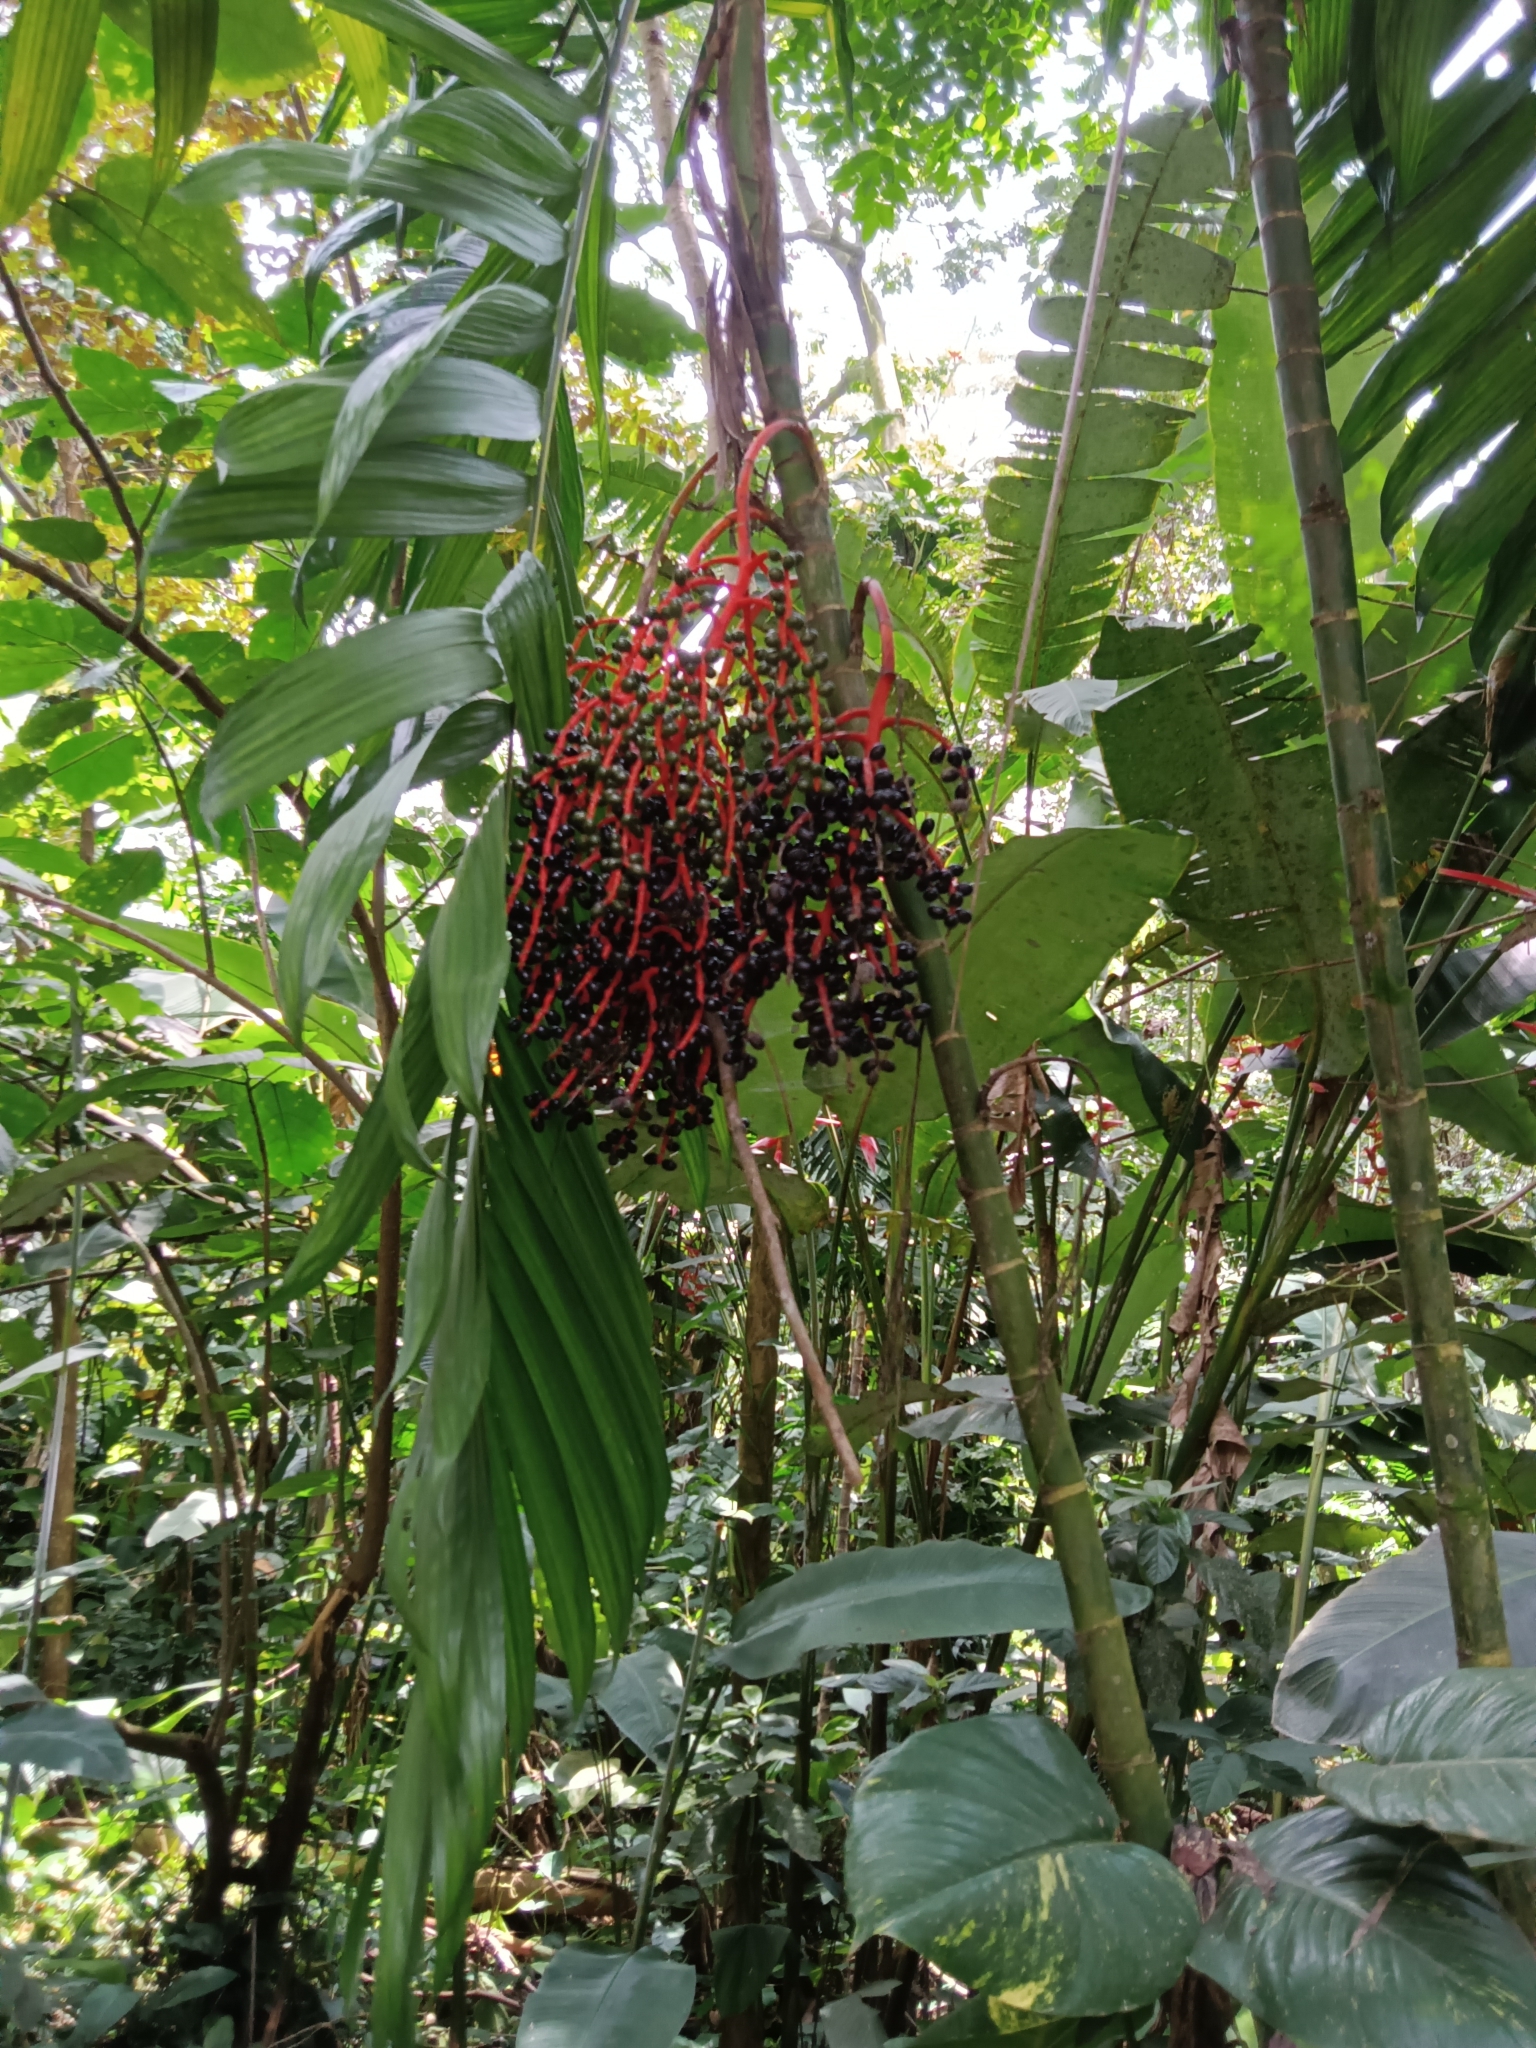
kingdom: Plantae
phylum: Tracheophyta
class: Liliopsida
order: Arecales
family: Arecaceae
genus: Chamaedorea
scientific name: Chamaedorea tepejilote
